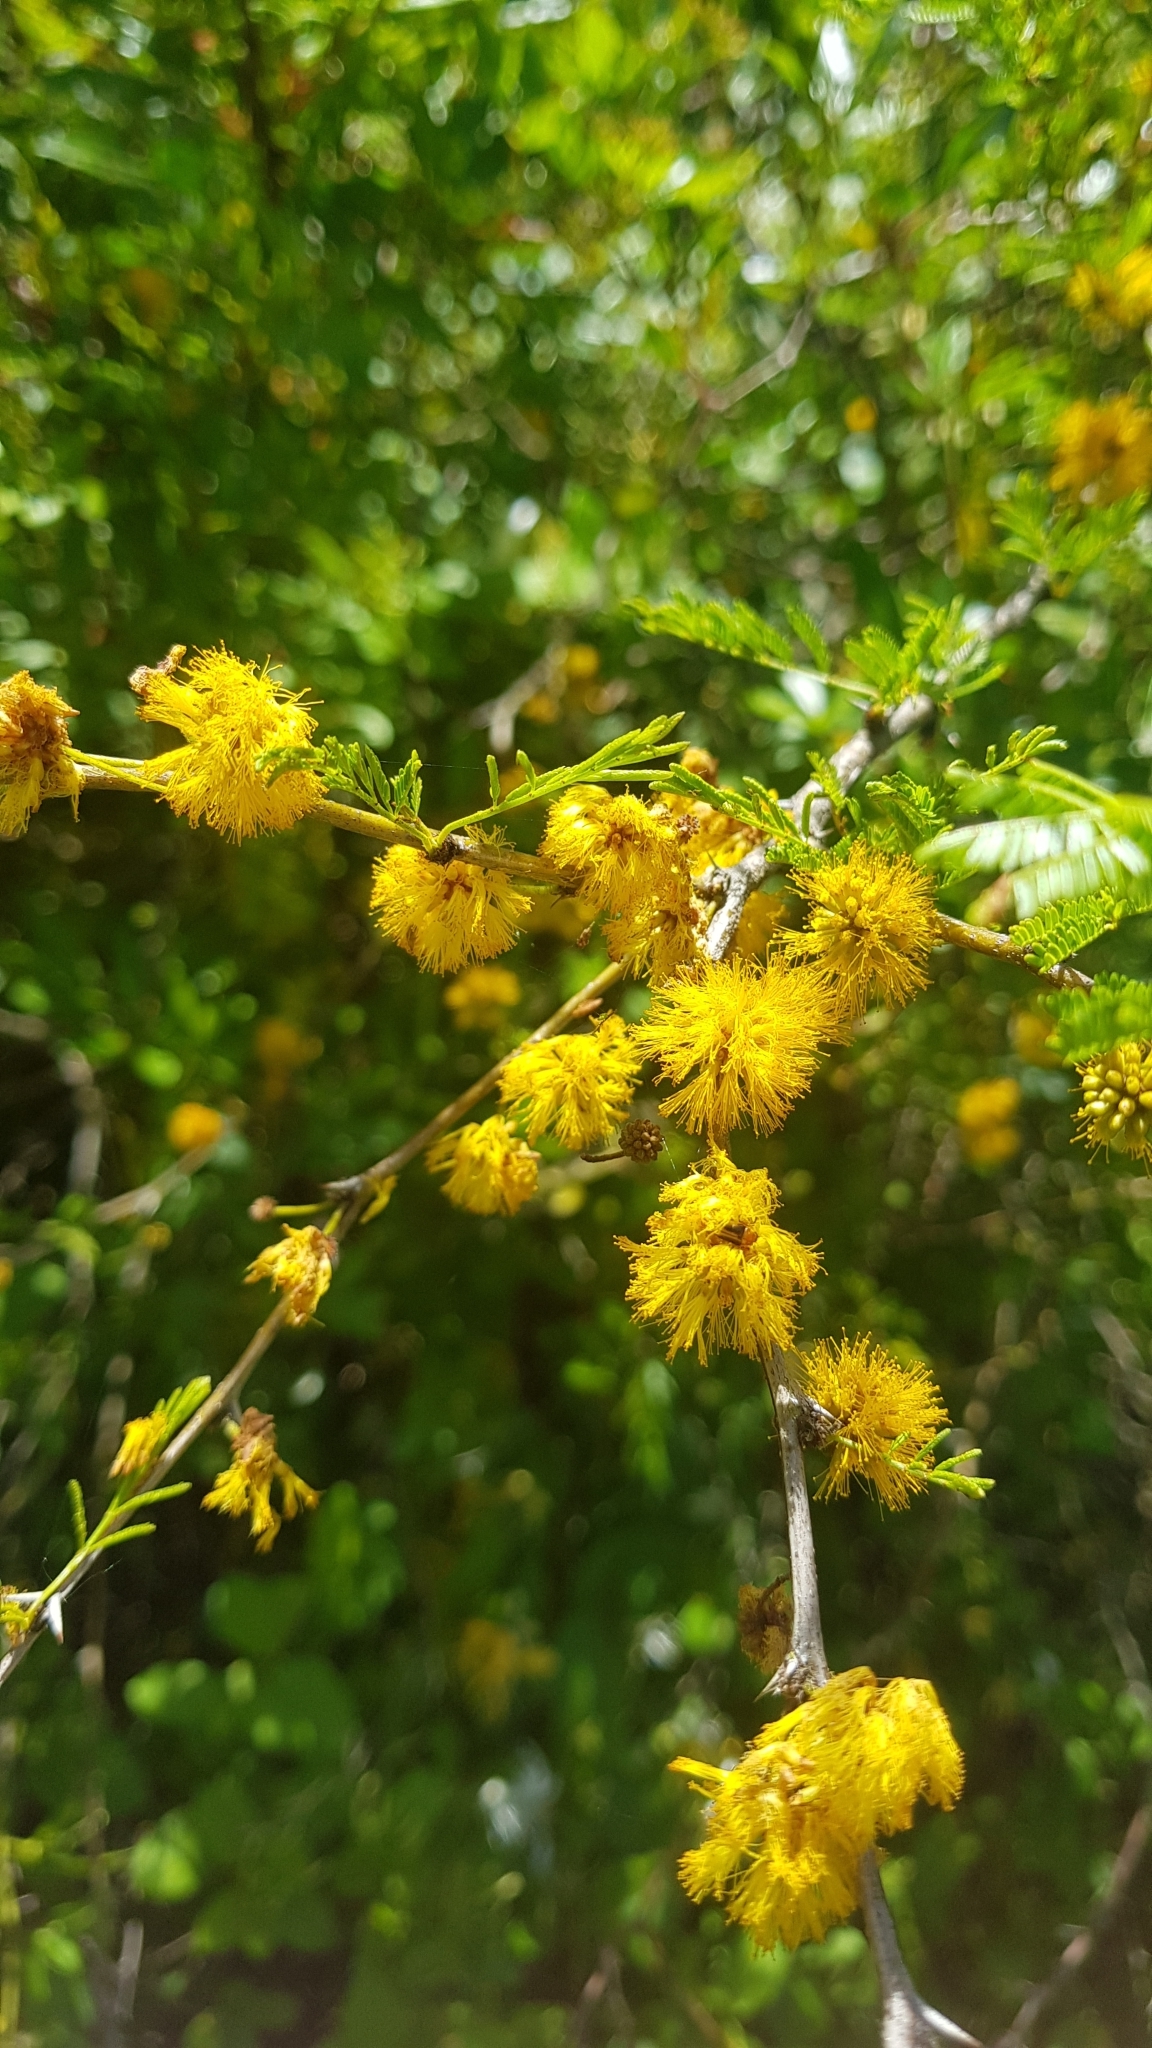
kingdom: Plantae
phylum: Tracheophyta
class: Magnoliopsida
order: Fabales
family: Fabaceae
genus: Vachellia
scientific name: Vachellia caven
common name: Roman cassie
